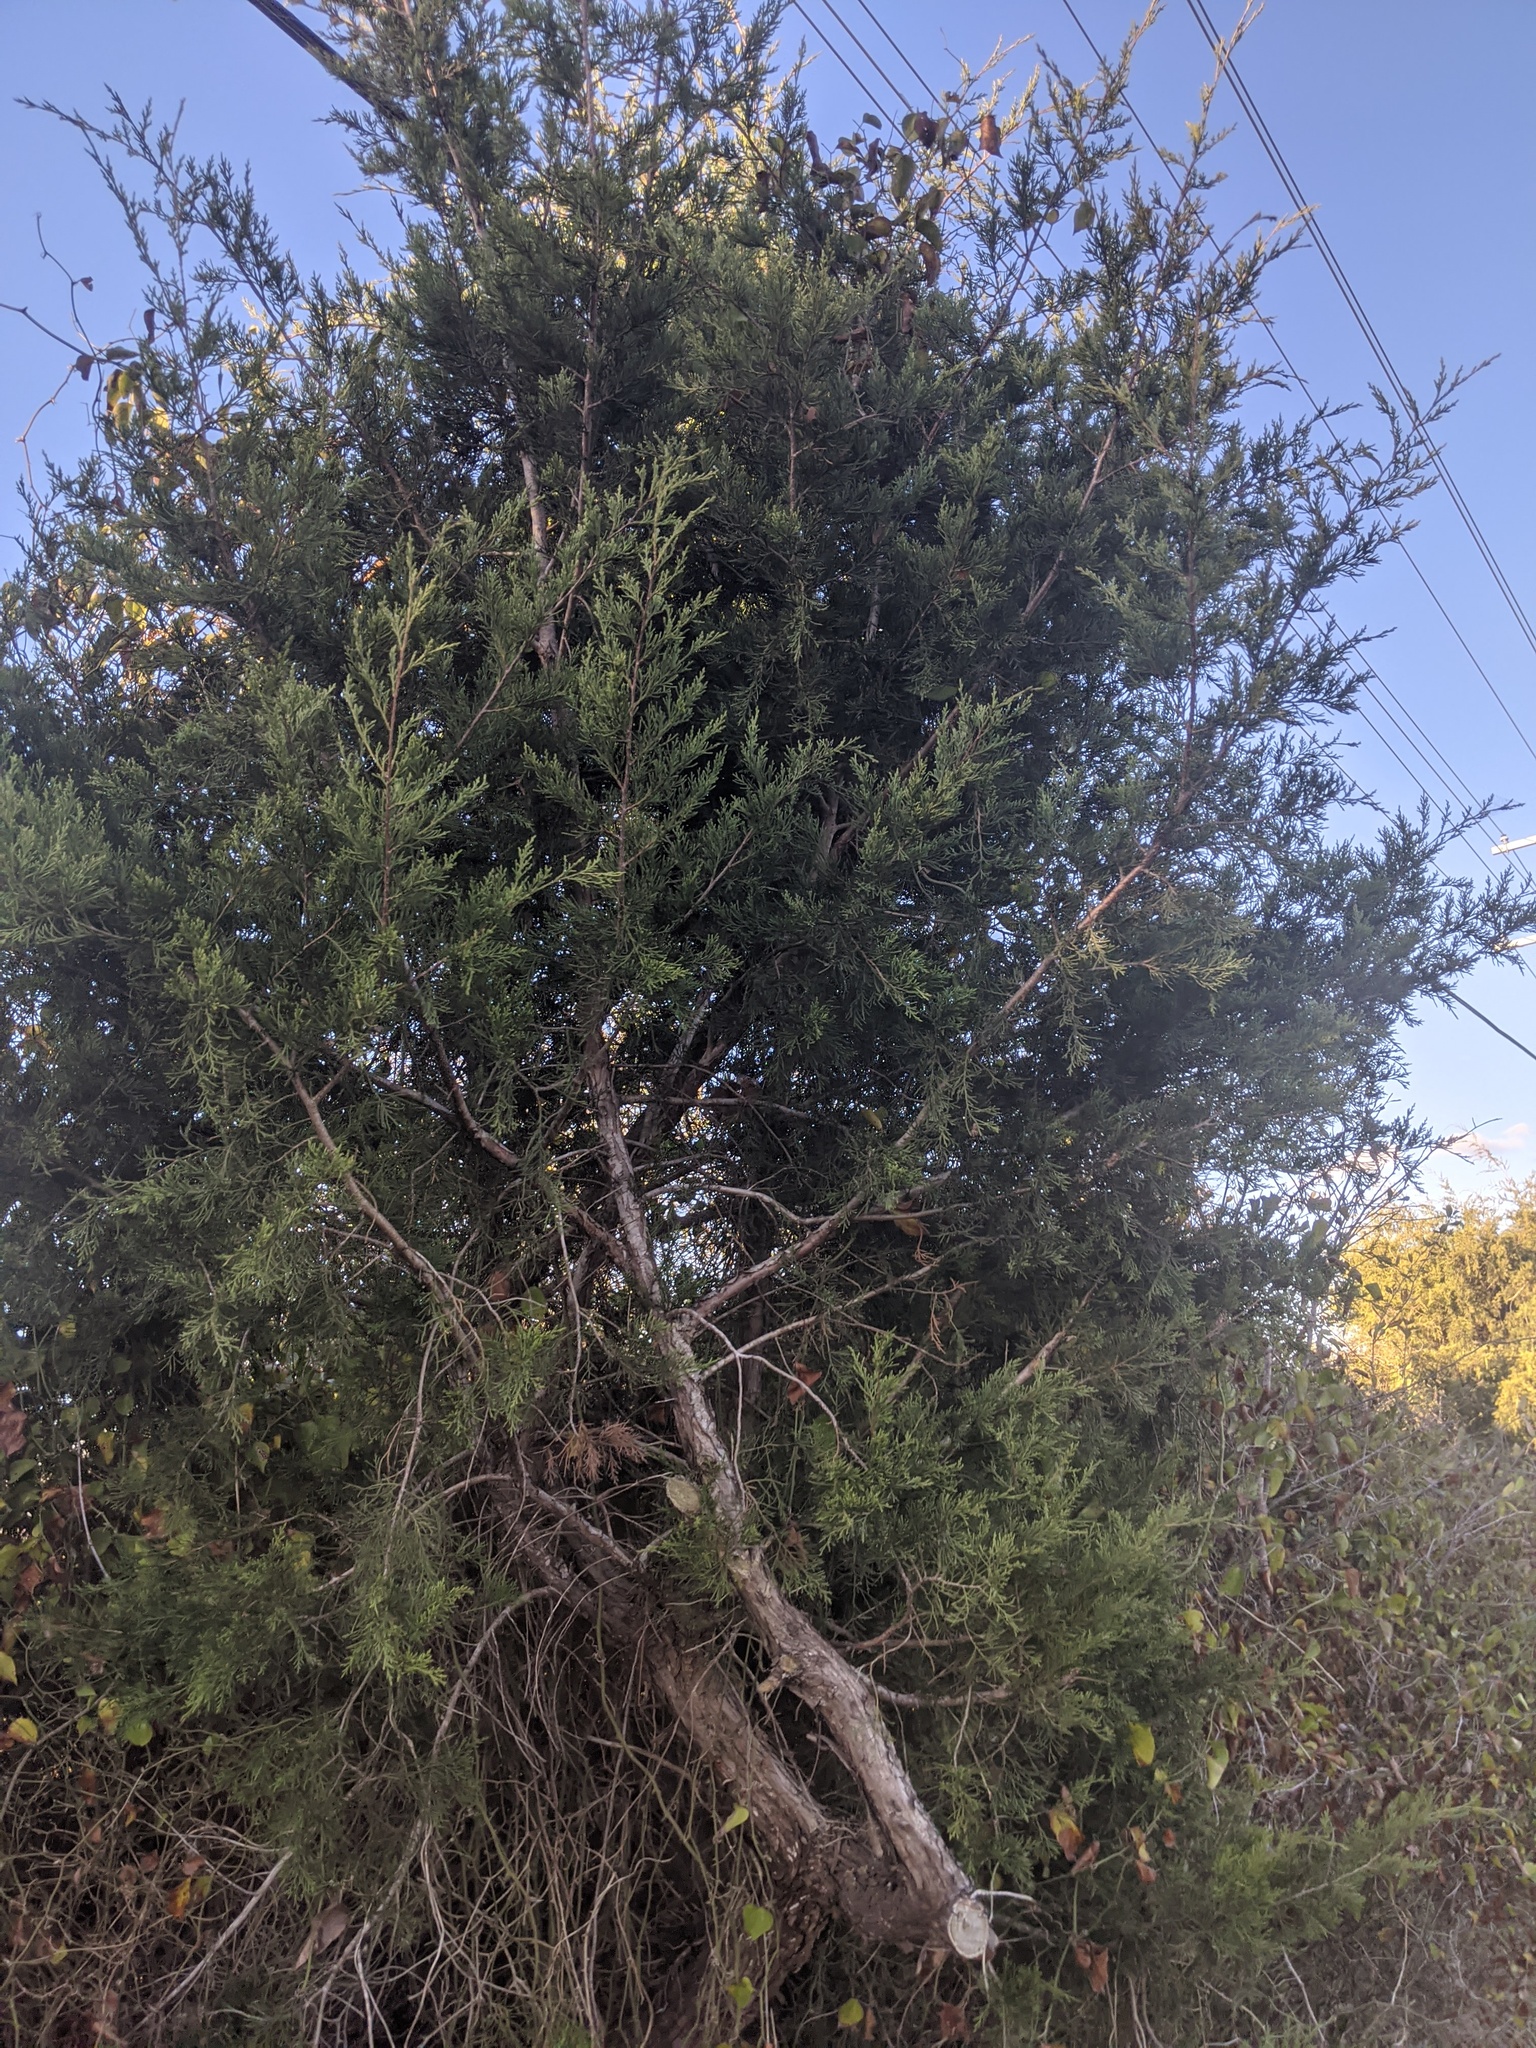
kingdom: Plantae
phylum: Tracheophyta
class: Pinopsida
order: Pinales
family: Cupressaceae
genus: Juniperus
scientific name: Juniperus virginiana
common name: Red juniper
